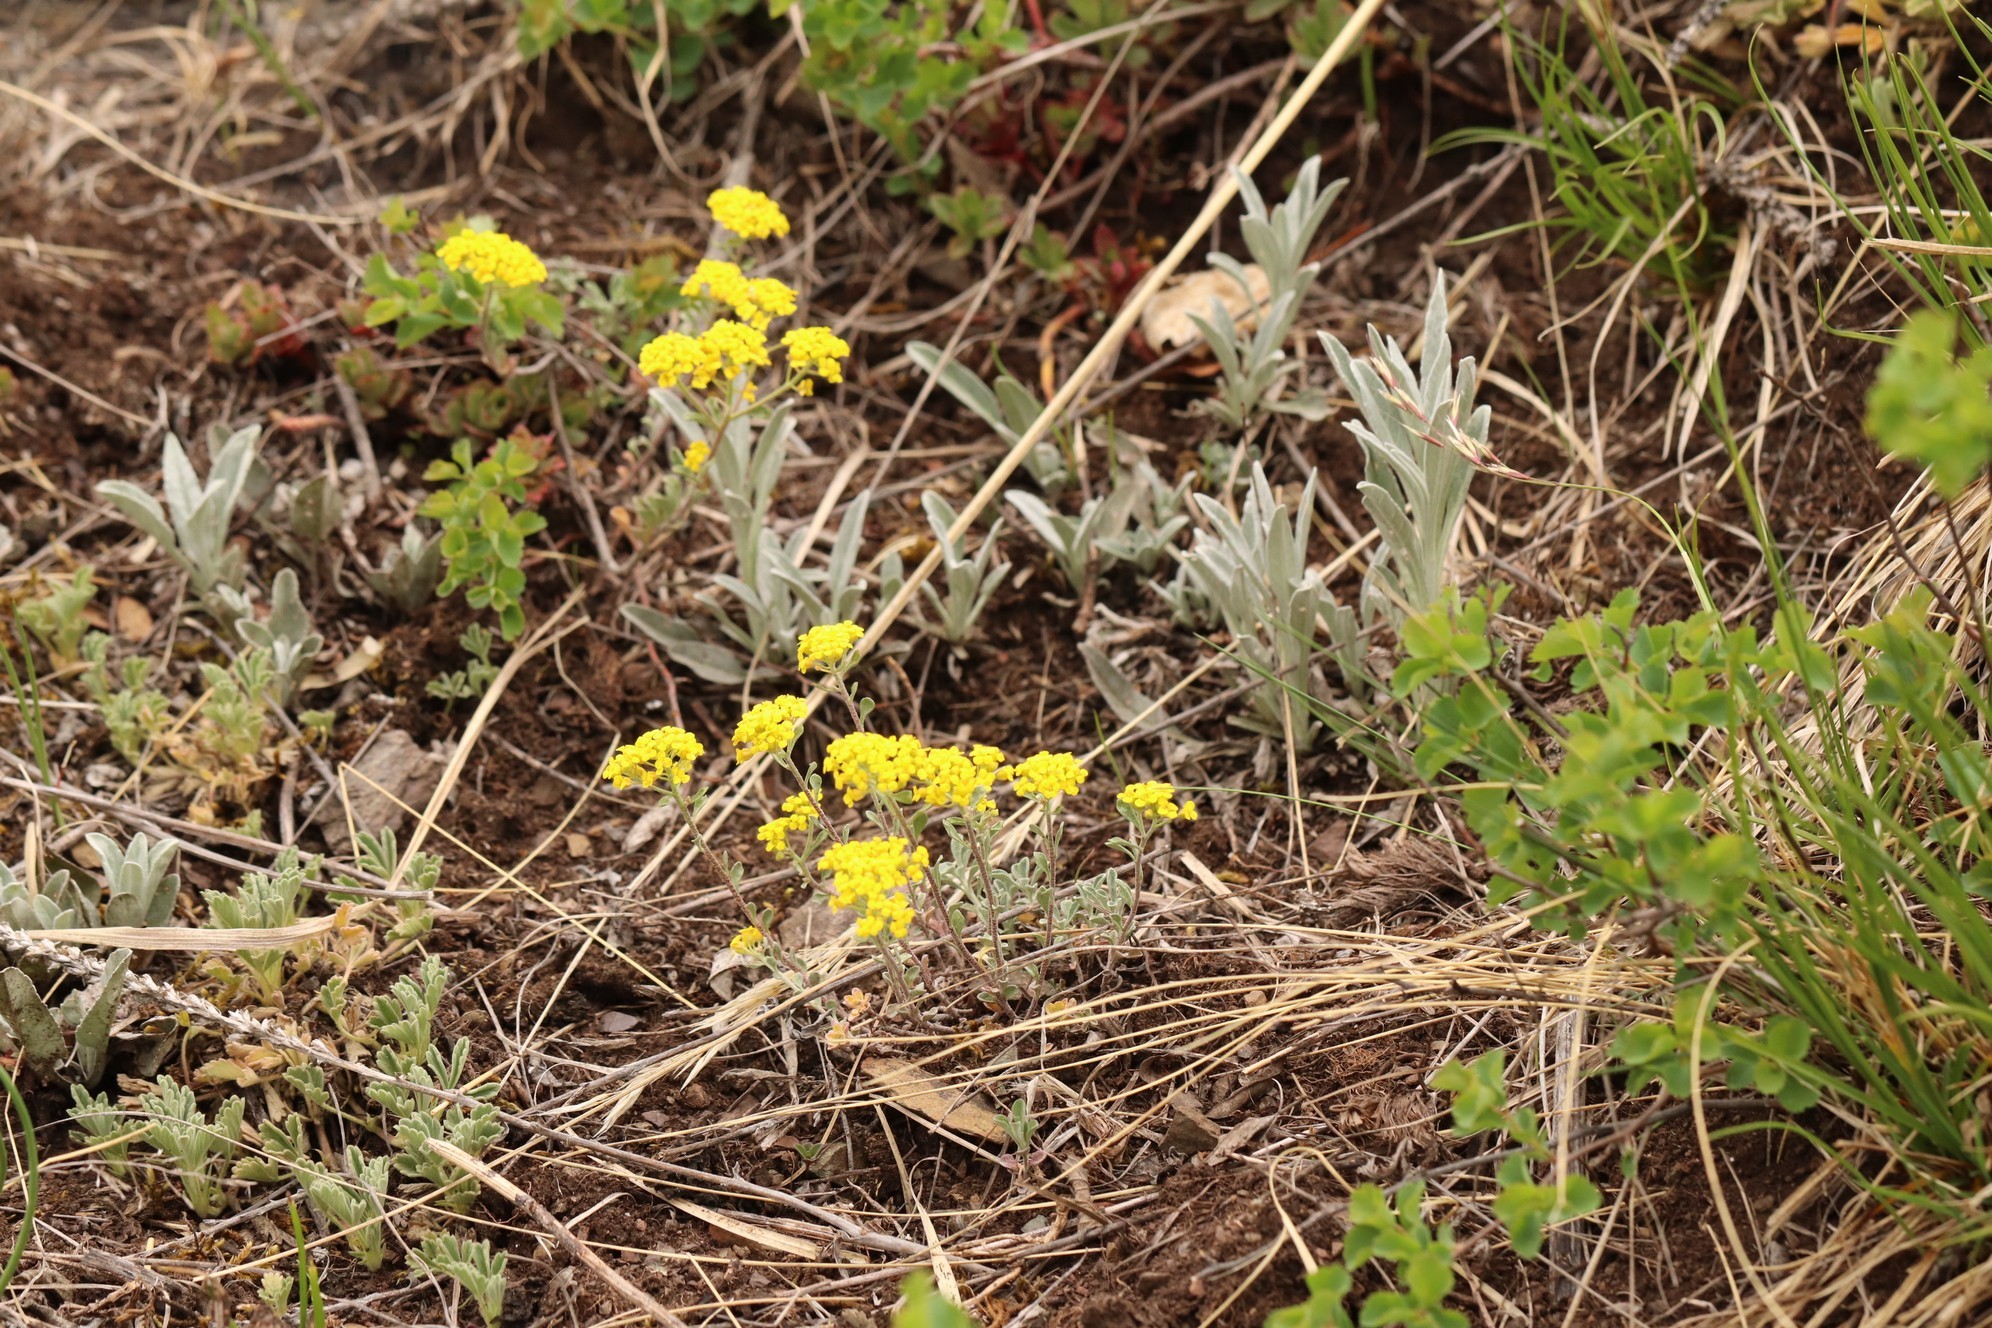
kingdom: Plantae
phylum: Tracheophyta
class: Magnoliopsida
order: Brassicales
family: Brassicaceae
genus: Odontarrhena
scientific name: Odontarrhena obovata
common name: American alyssum
